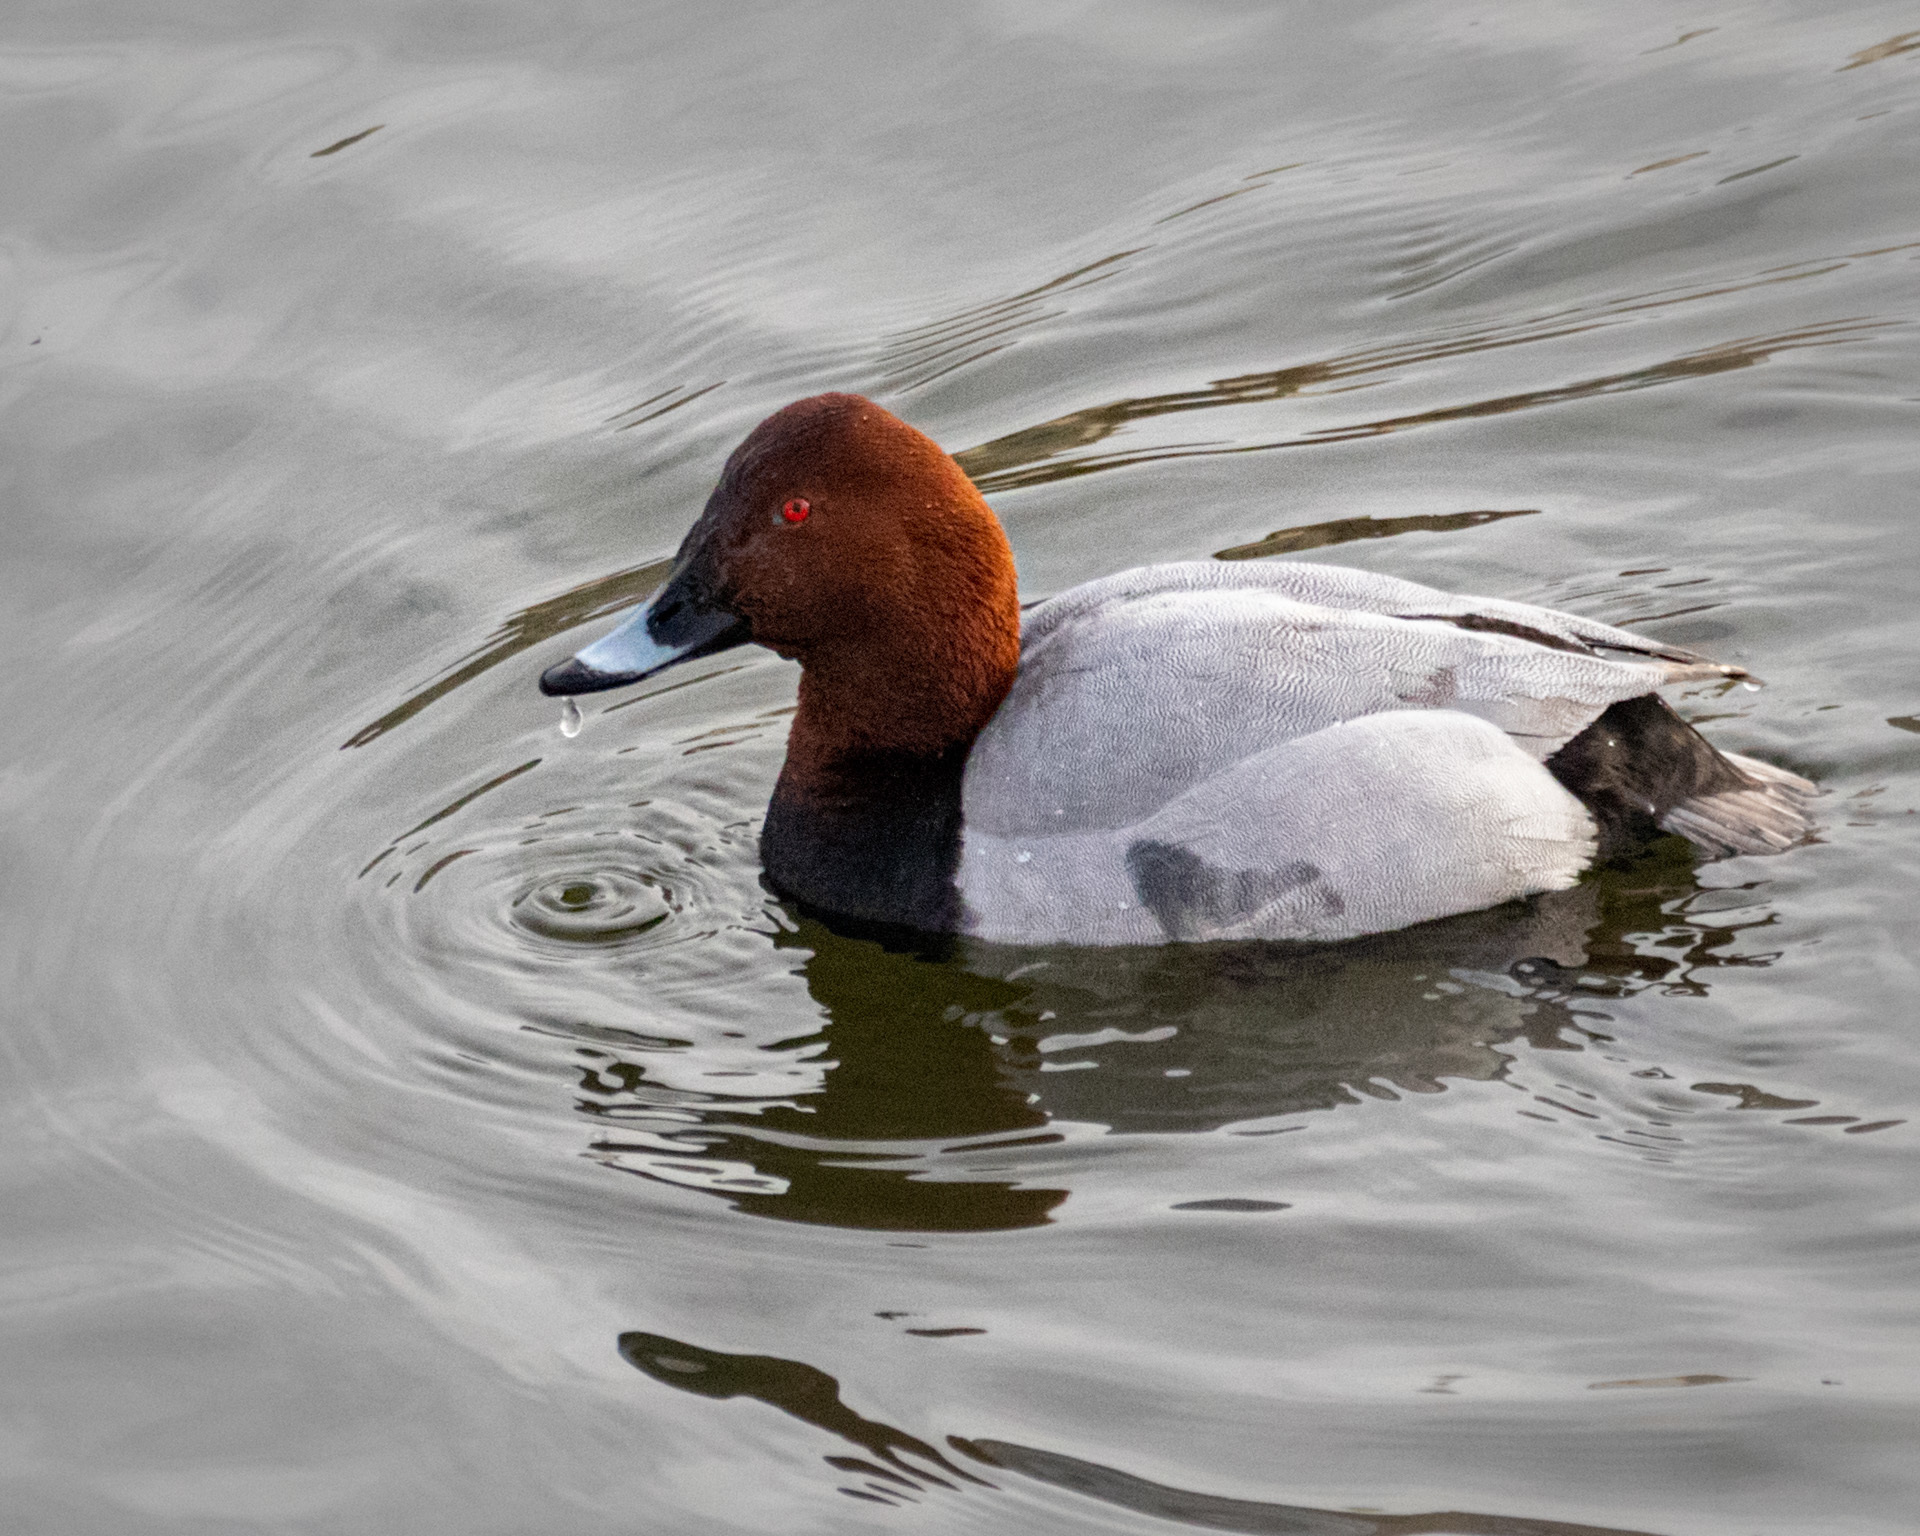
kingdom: Animalia
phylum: Chordata
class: Aves
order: Anseriformes
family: Anatidae
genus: Aythya
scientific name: Aythya ferina
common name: Common pochard
